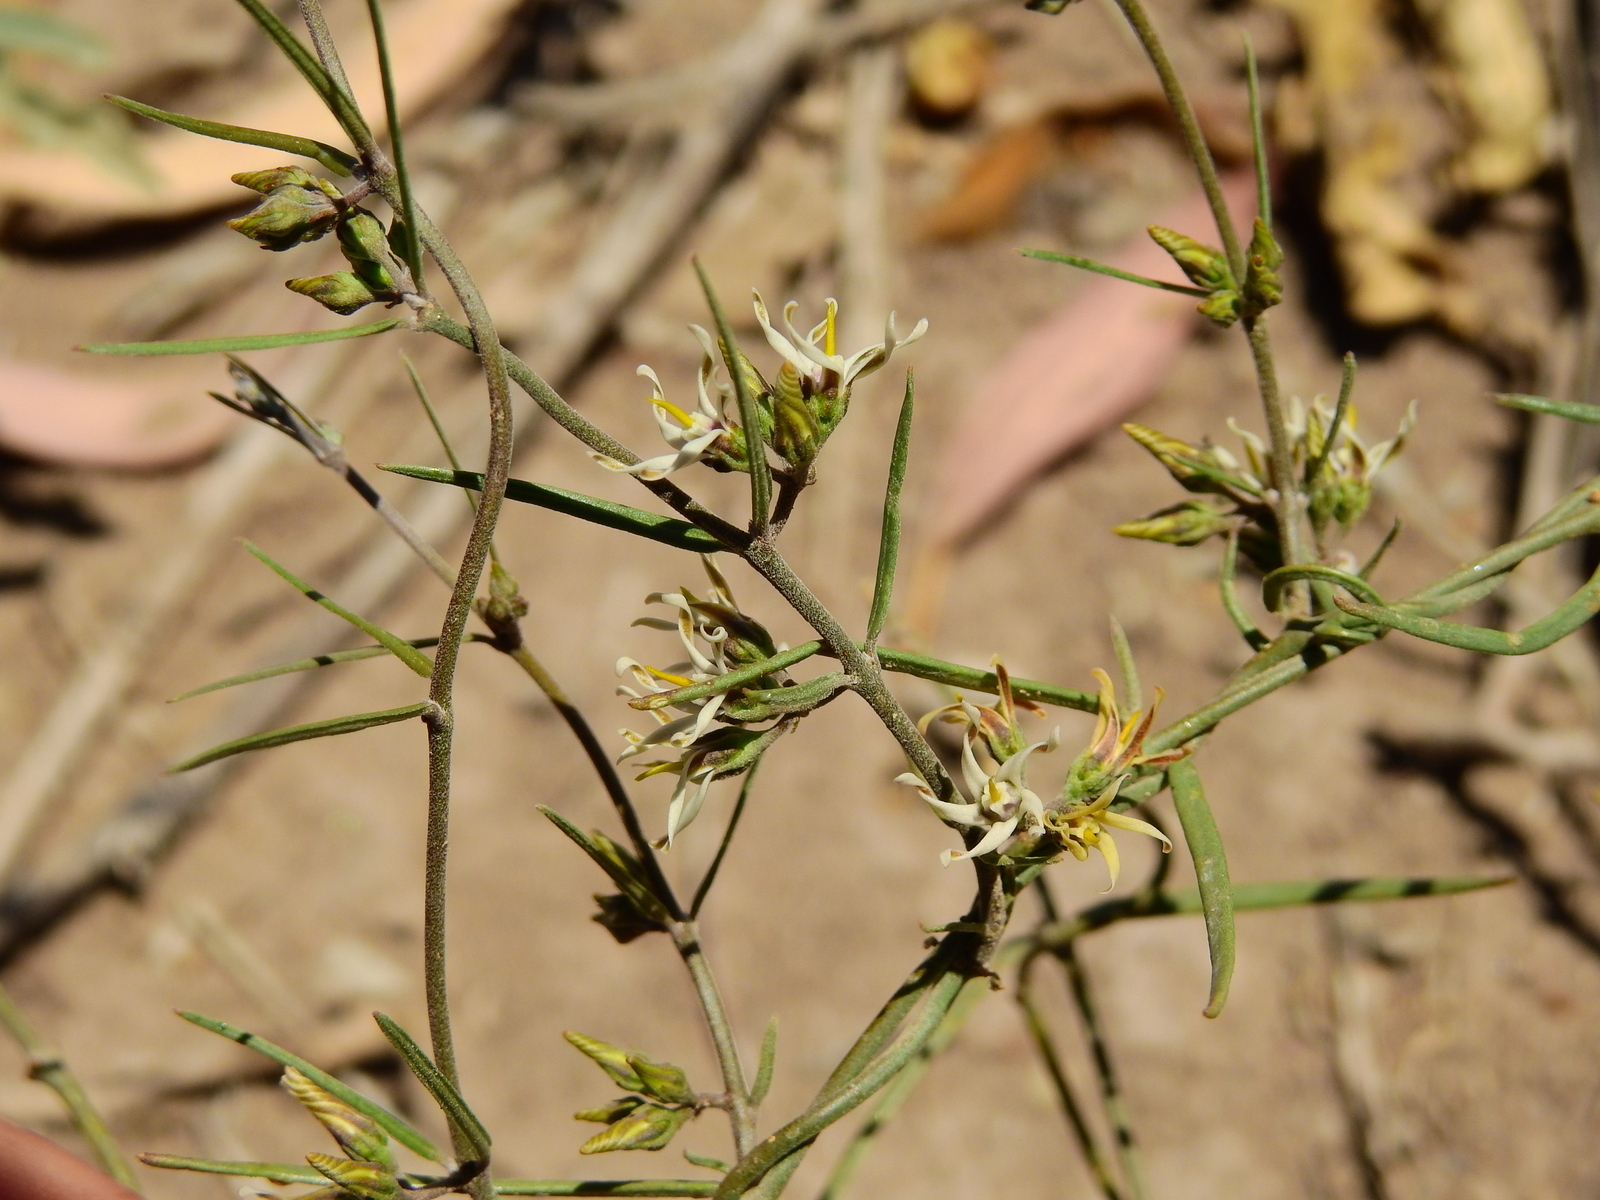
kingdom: Plantae
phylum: Tracheophyta
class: Magnoliopsida
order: Gentianales
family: Apocynaceae
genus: Tweedia
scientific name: Tweedia brunonis
